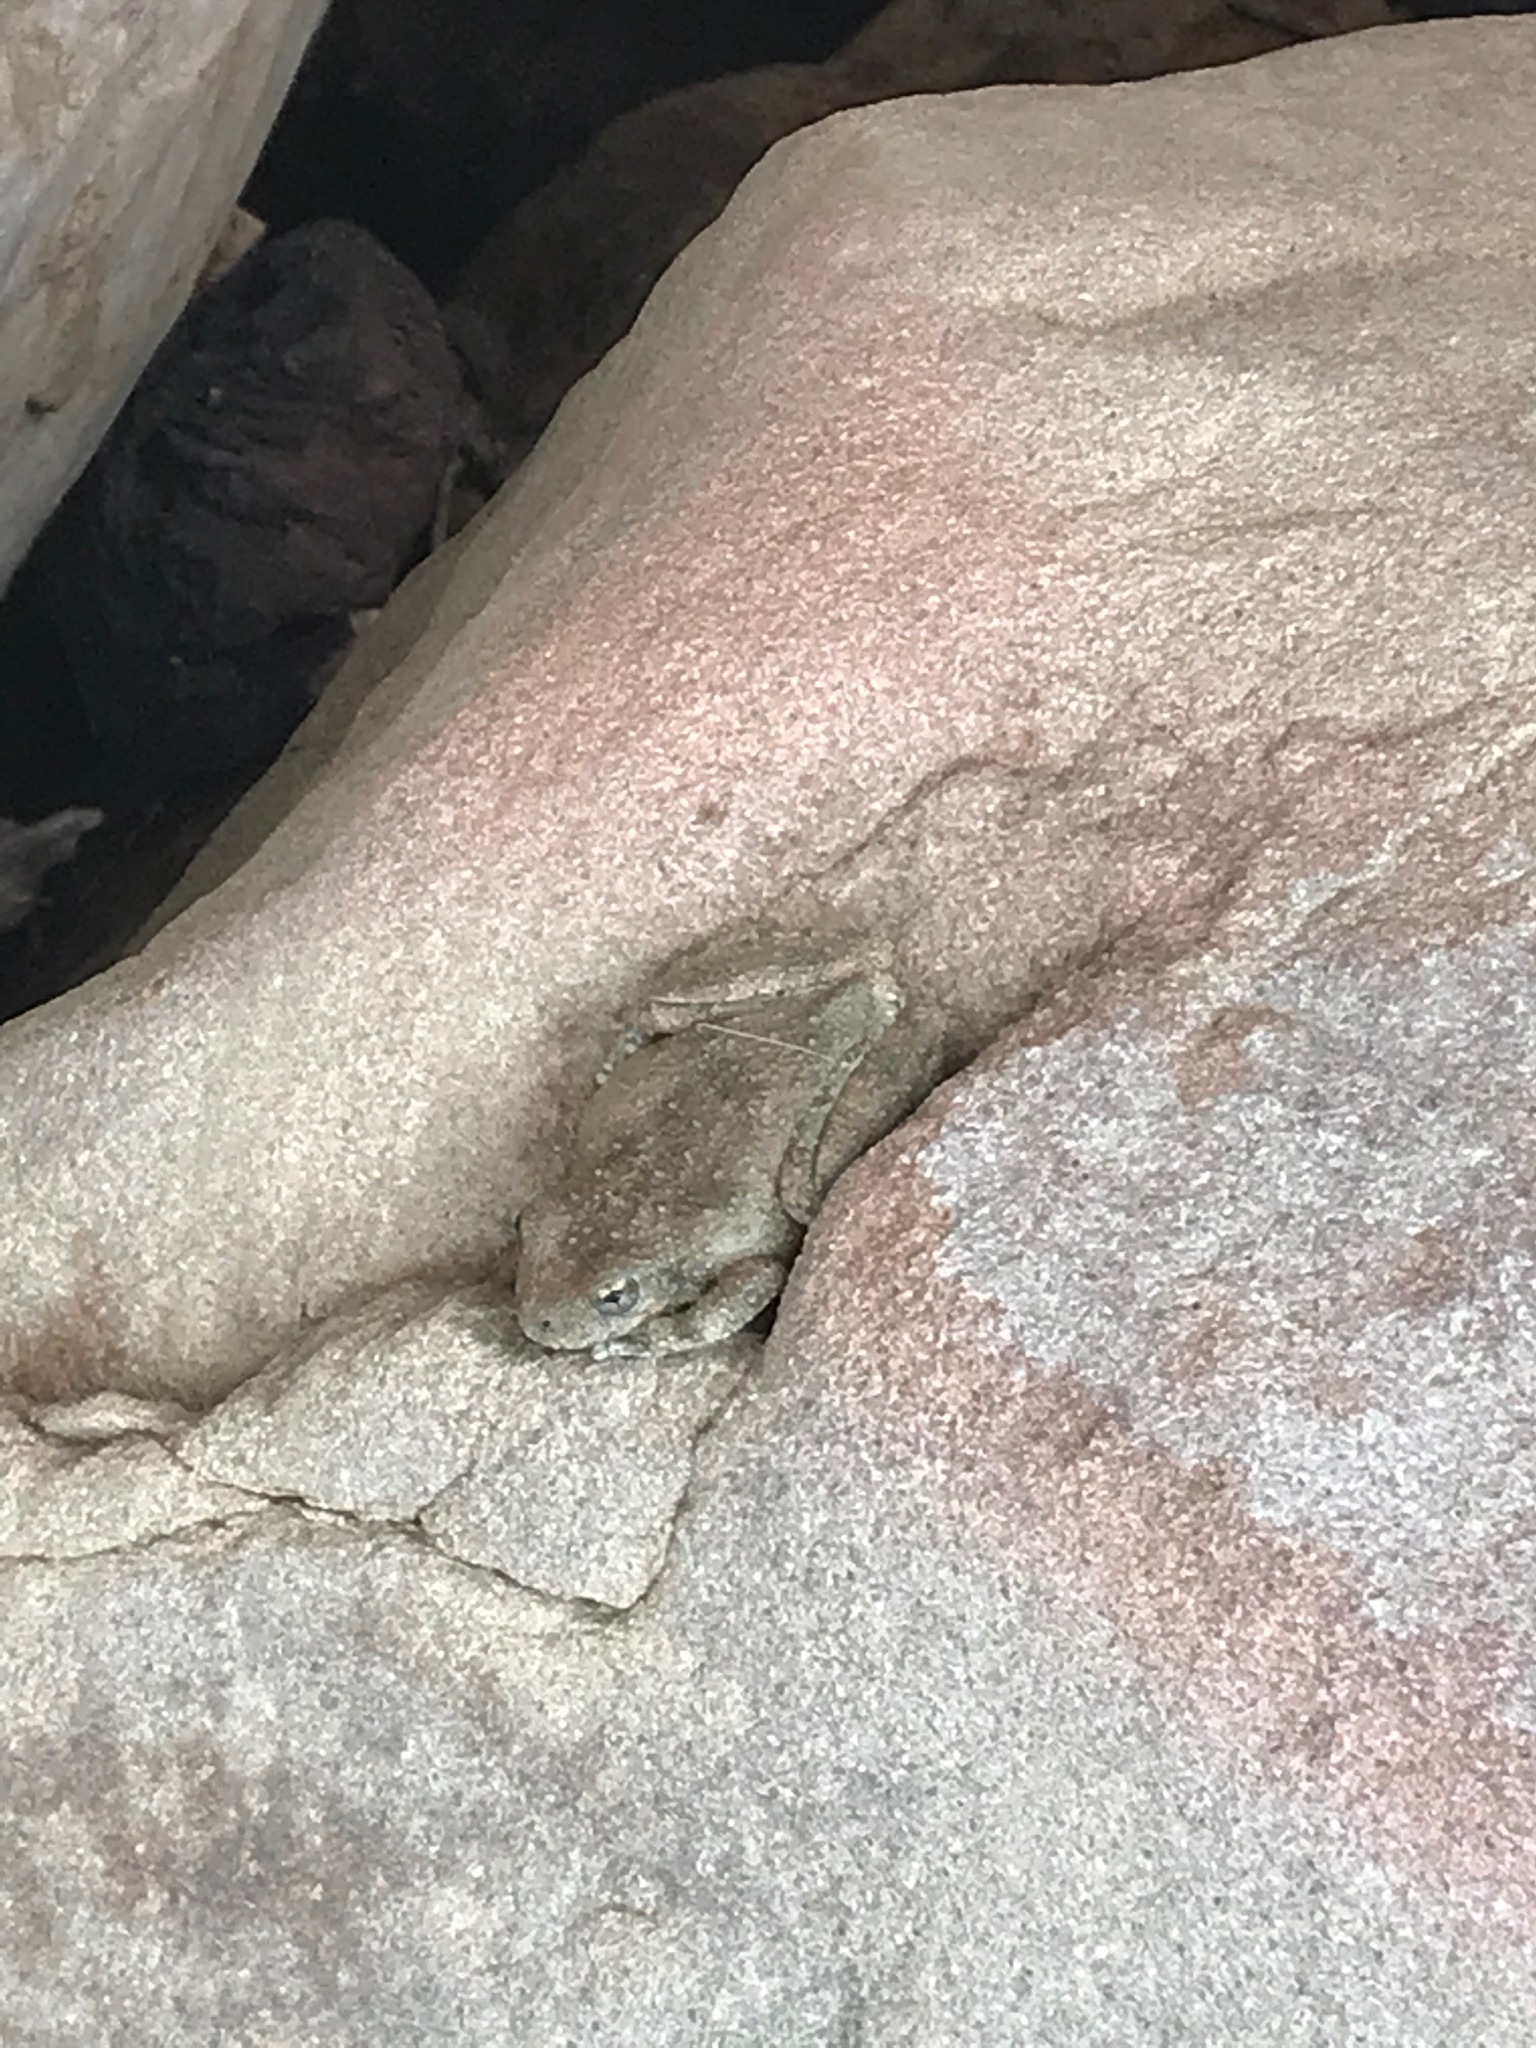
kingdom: Animalia
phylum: Chordata
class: Amphibia
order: Anura
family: Hylidae
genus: Pseudacris
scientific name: Pseudacris cadaverina
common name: California chorus frog
